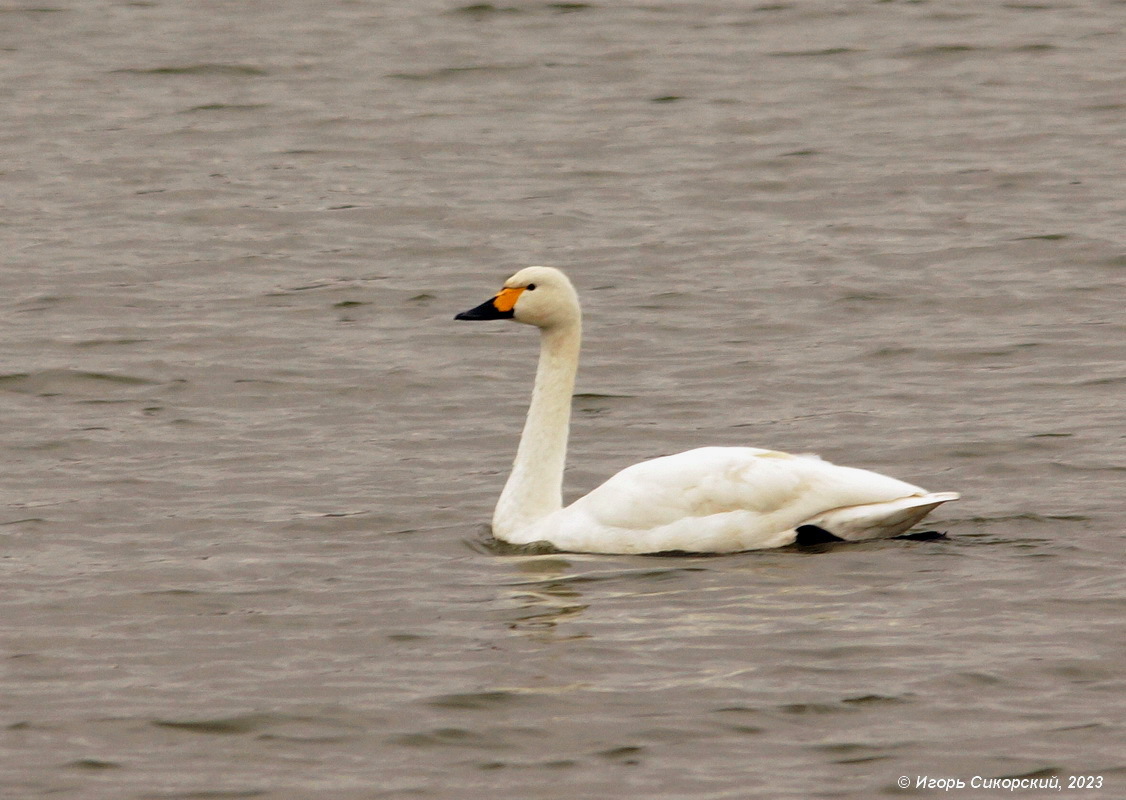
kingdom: Animalia
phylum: Chordata
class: Aves
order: Anseriformes
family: Anatidae
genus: Cygnus
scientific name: Cygnus columbianus
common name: Tundra swan
